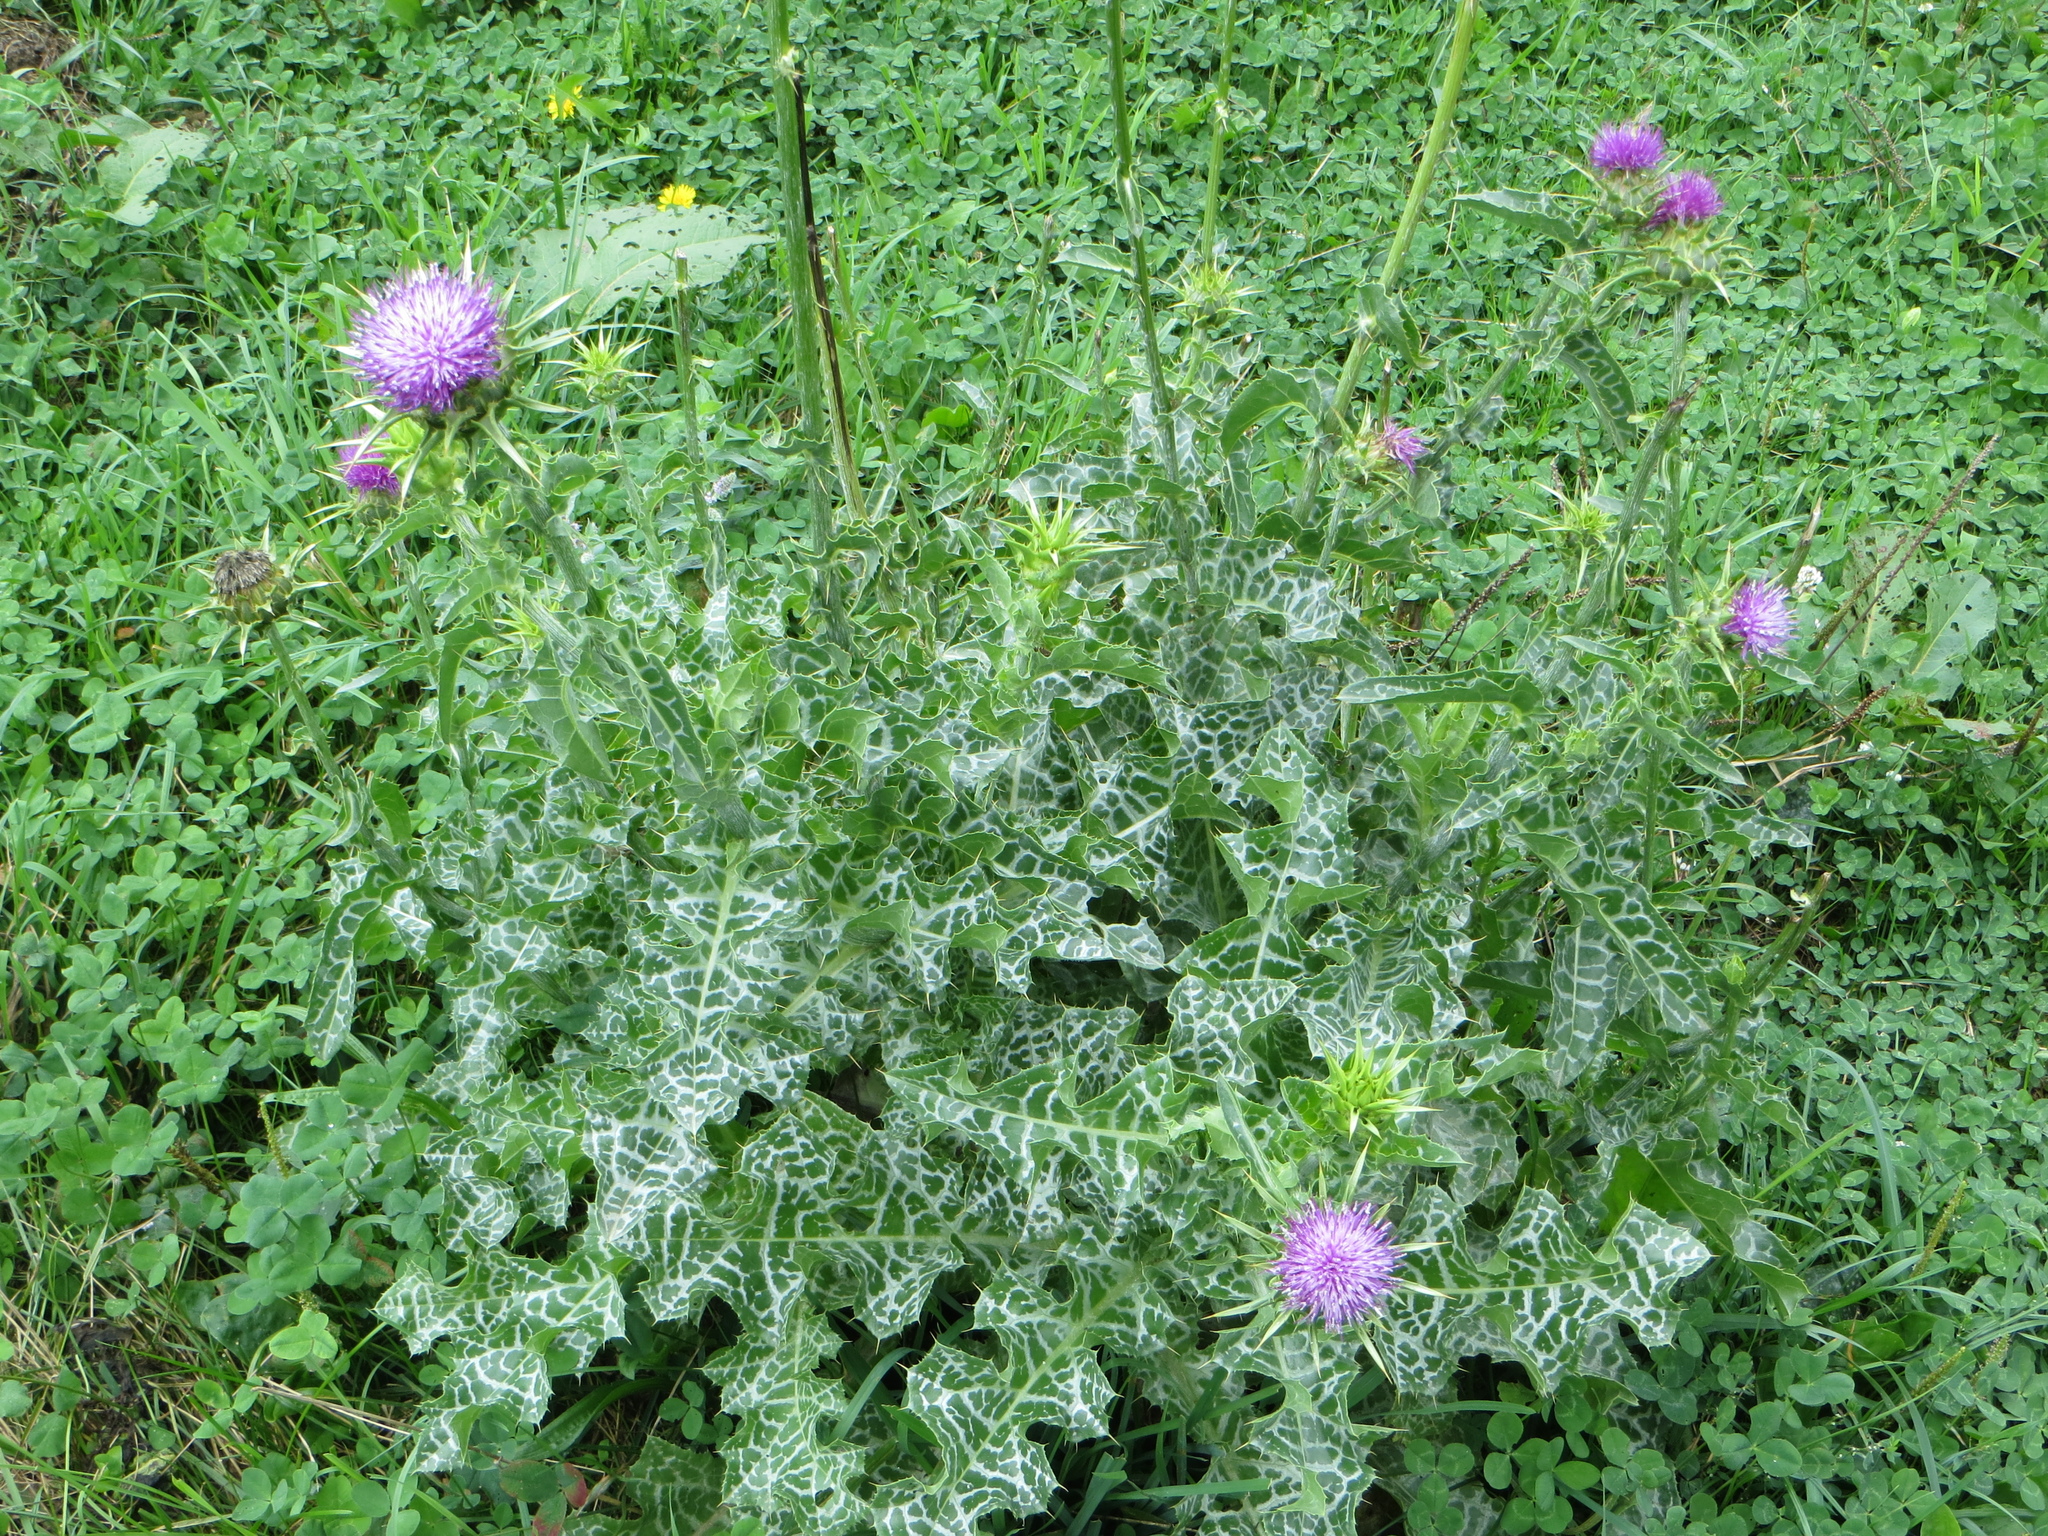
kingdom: Plantae
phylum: Tracheophyta
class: Magnoliopsida
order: Asterales
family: Asteraceae
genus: Silybum
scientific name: Silybum marianum
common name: Milk thistle
